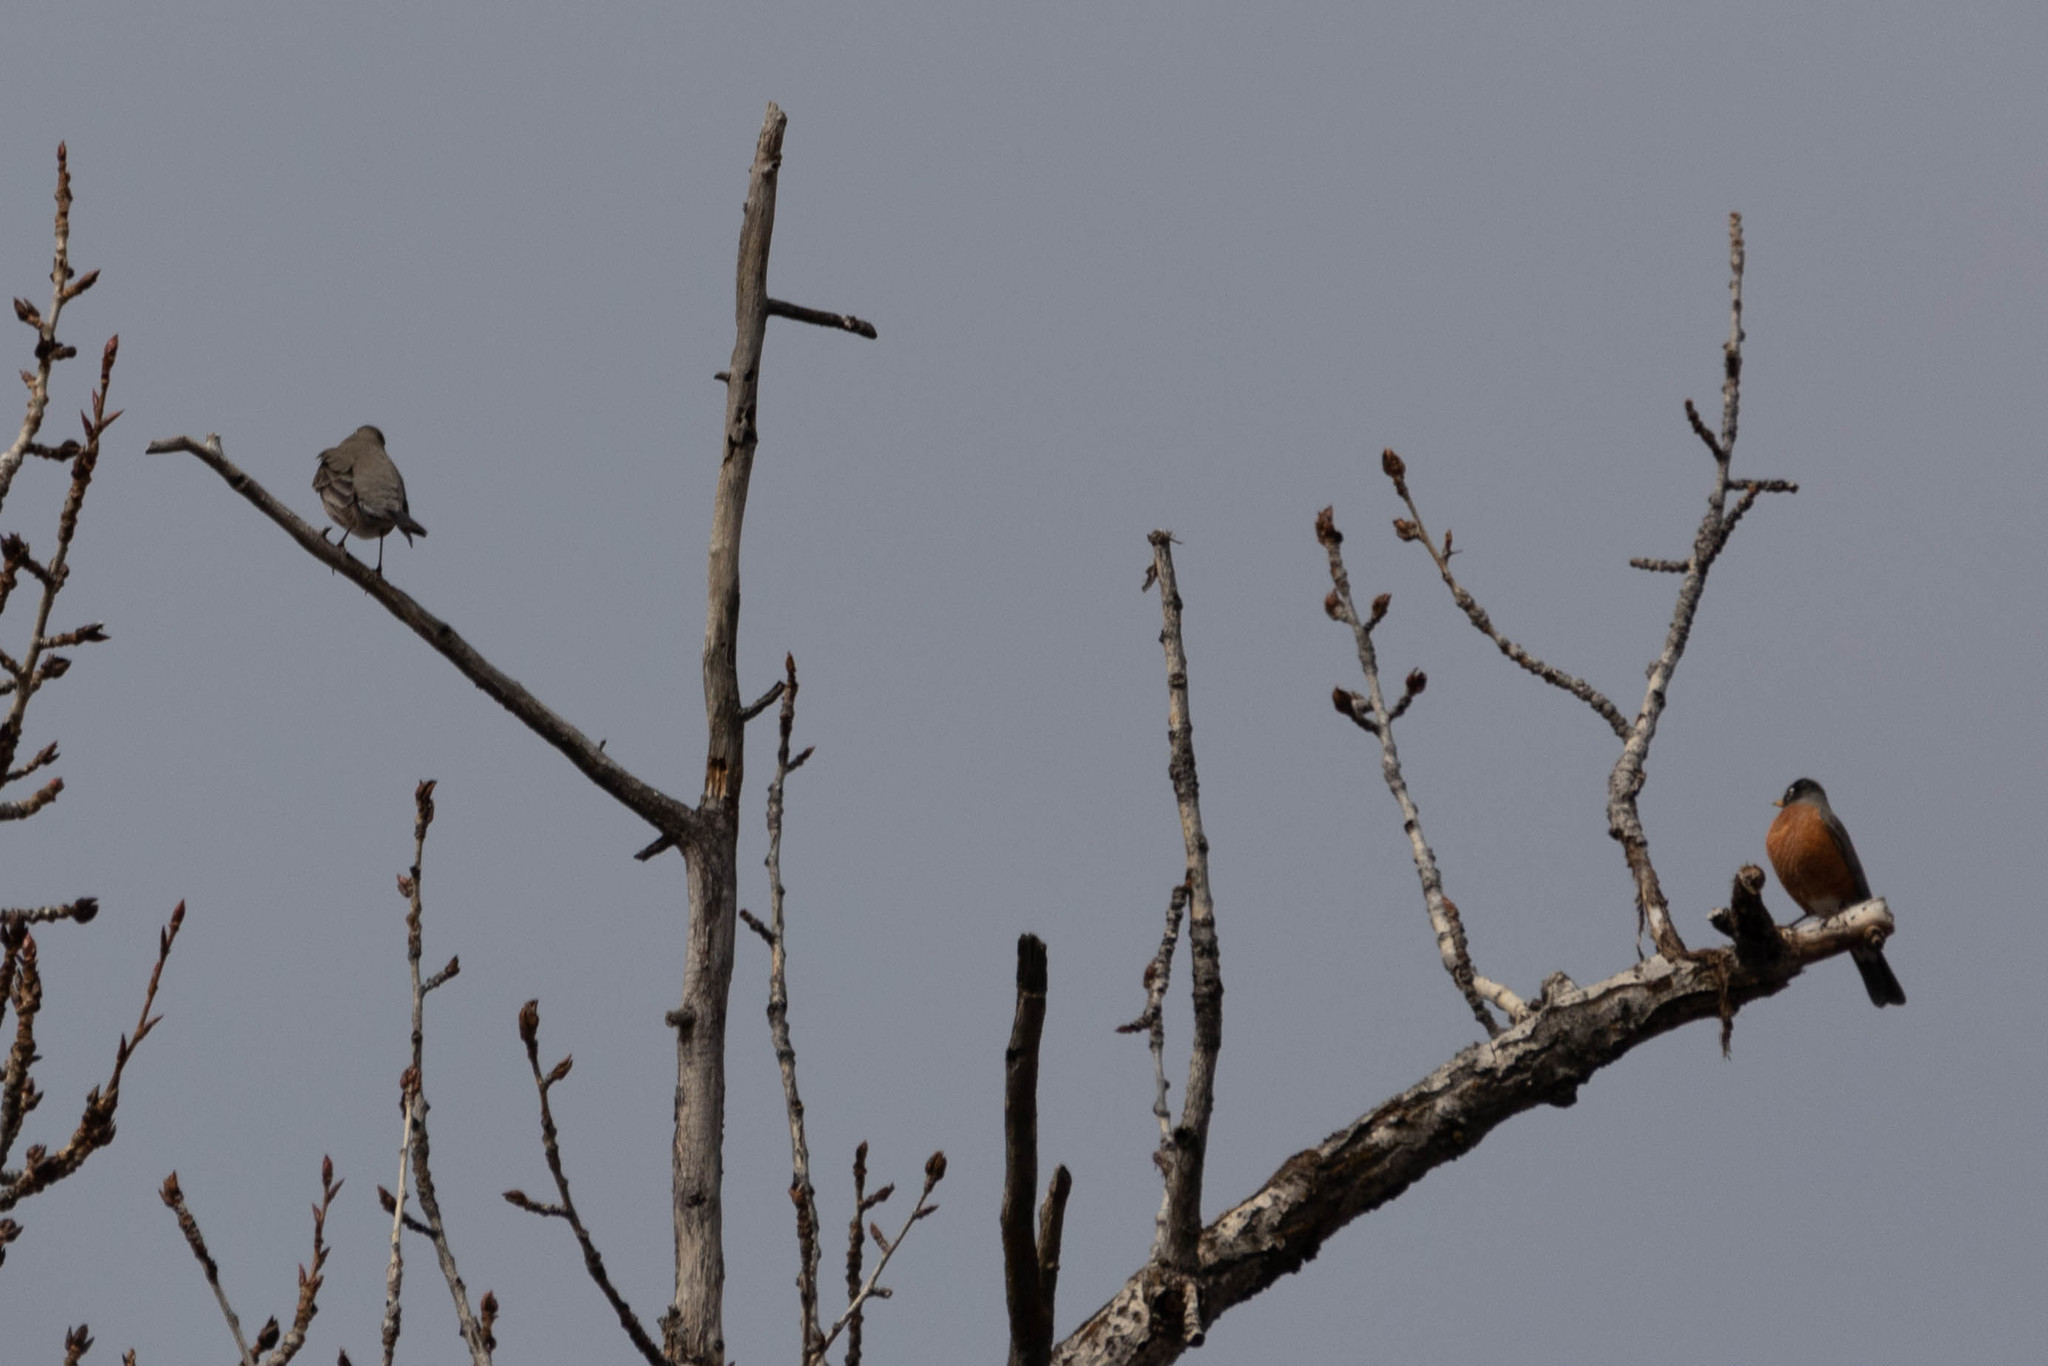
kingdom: Animalia
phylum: Chordata
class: Aves
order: Passeriformes
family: Turdidae
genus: Turdus
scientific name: Turdus migratorius
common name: American robin
